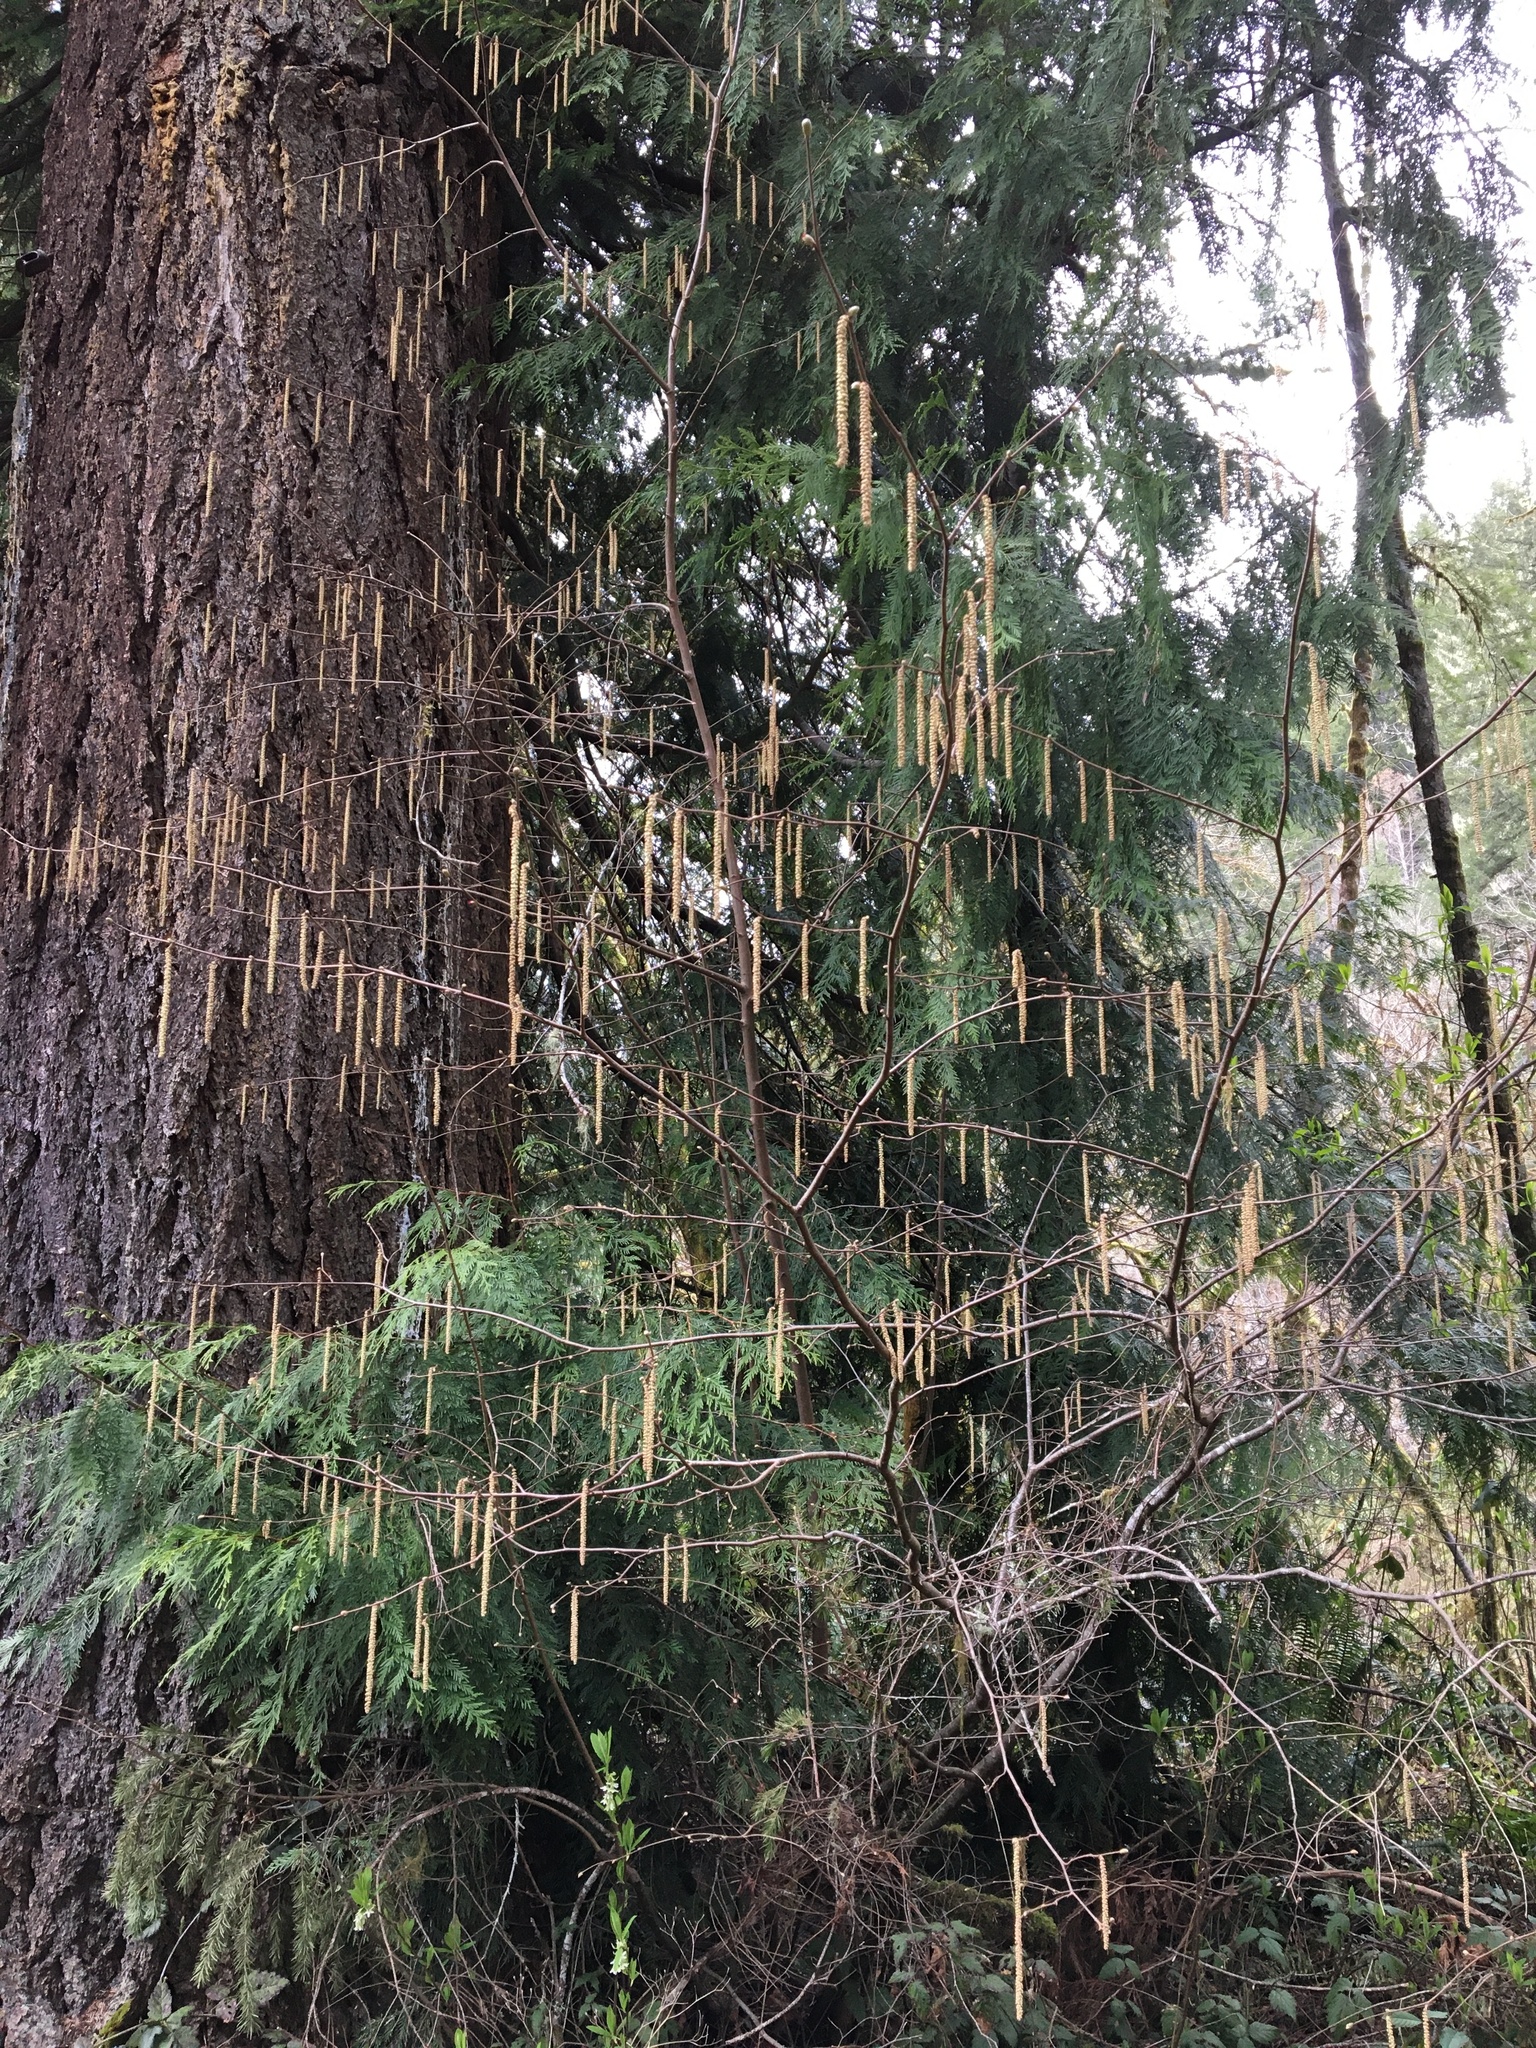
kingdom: Plantae
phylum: Tracheophyta
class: Magnoliopsida
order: Fagales
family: Betulaceae
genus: Corylus
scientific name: Corylus cornuta
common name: Beaked hazel
